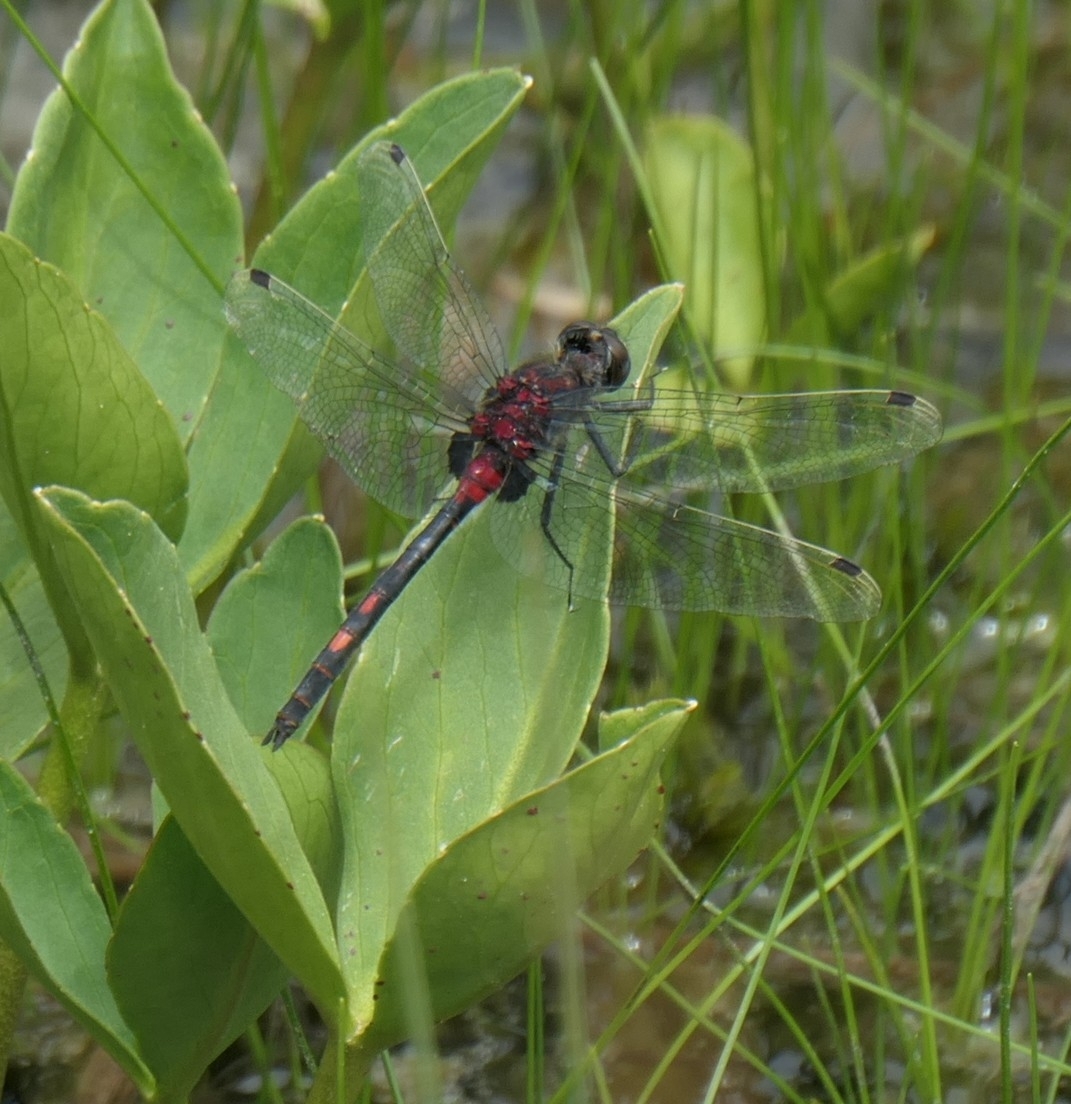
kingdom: Animalia
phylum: Arthropoda
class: Insecta
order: Odonata
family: Libellulidae
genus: Leucorrhinia
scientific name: Leucorrhinia dubia
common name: White-faced darter
